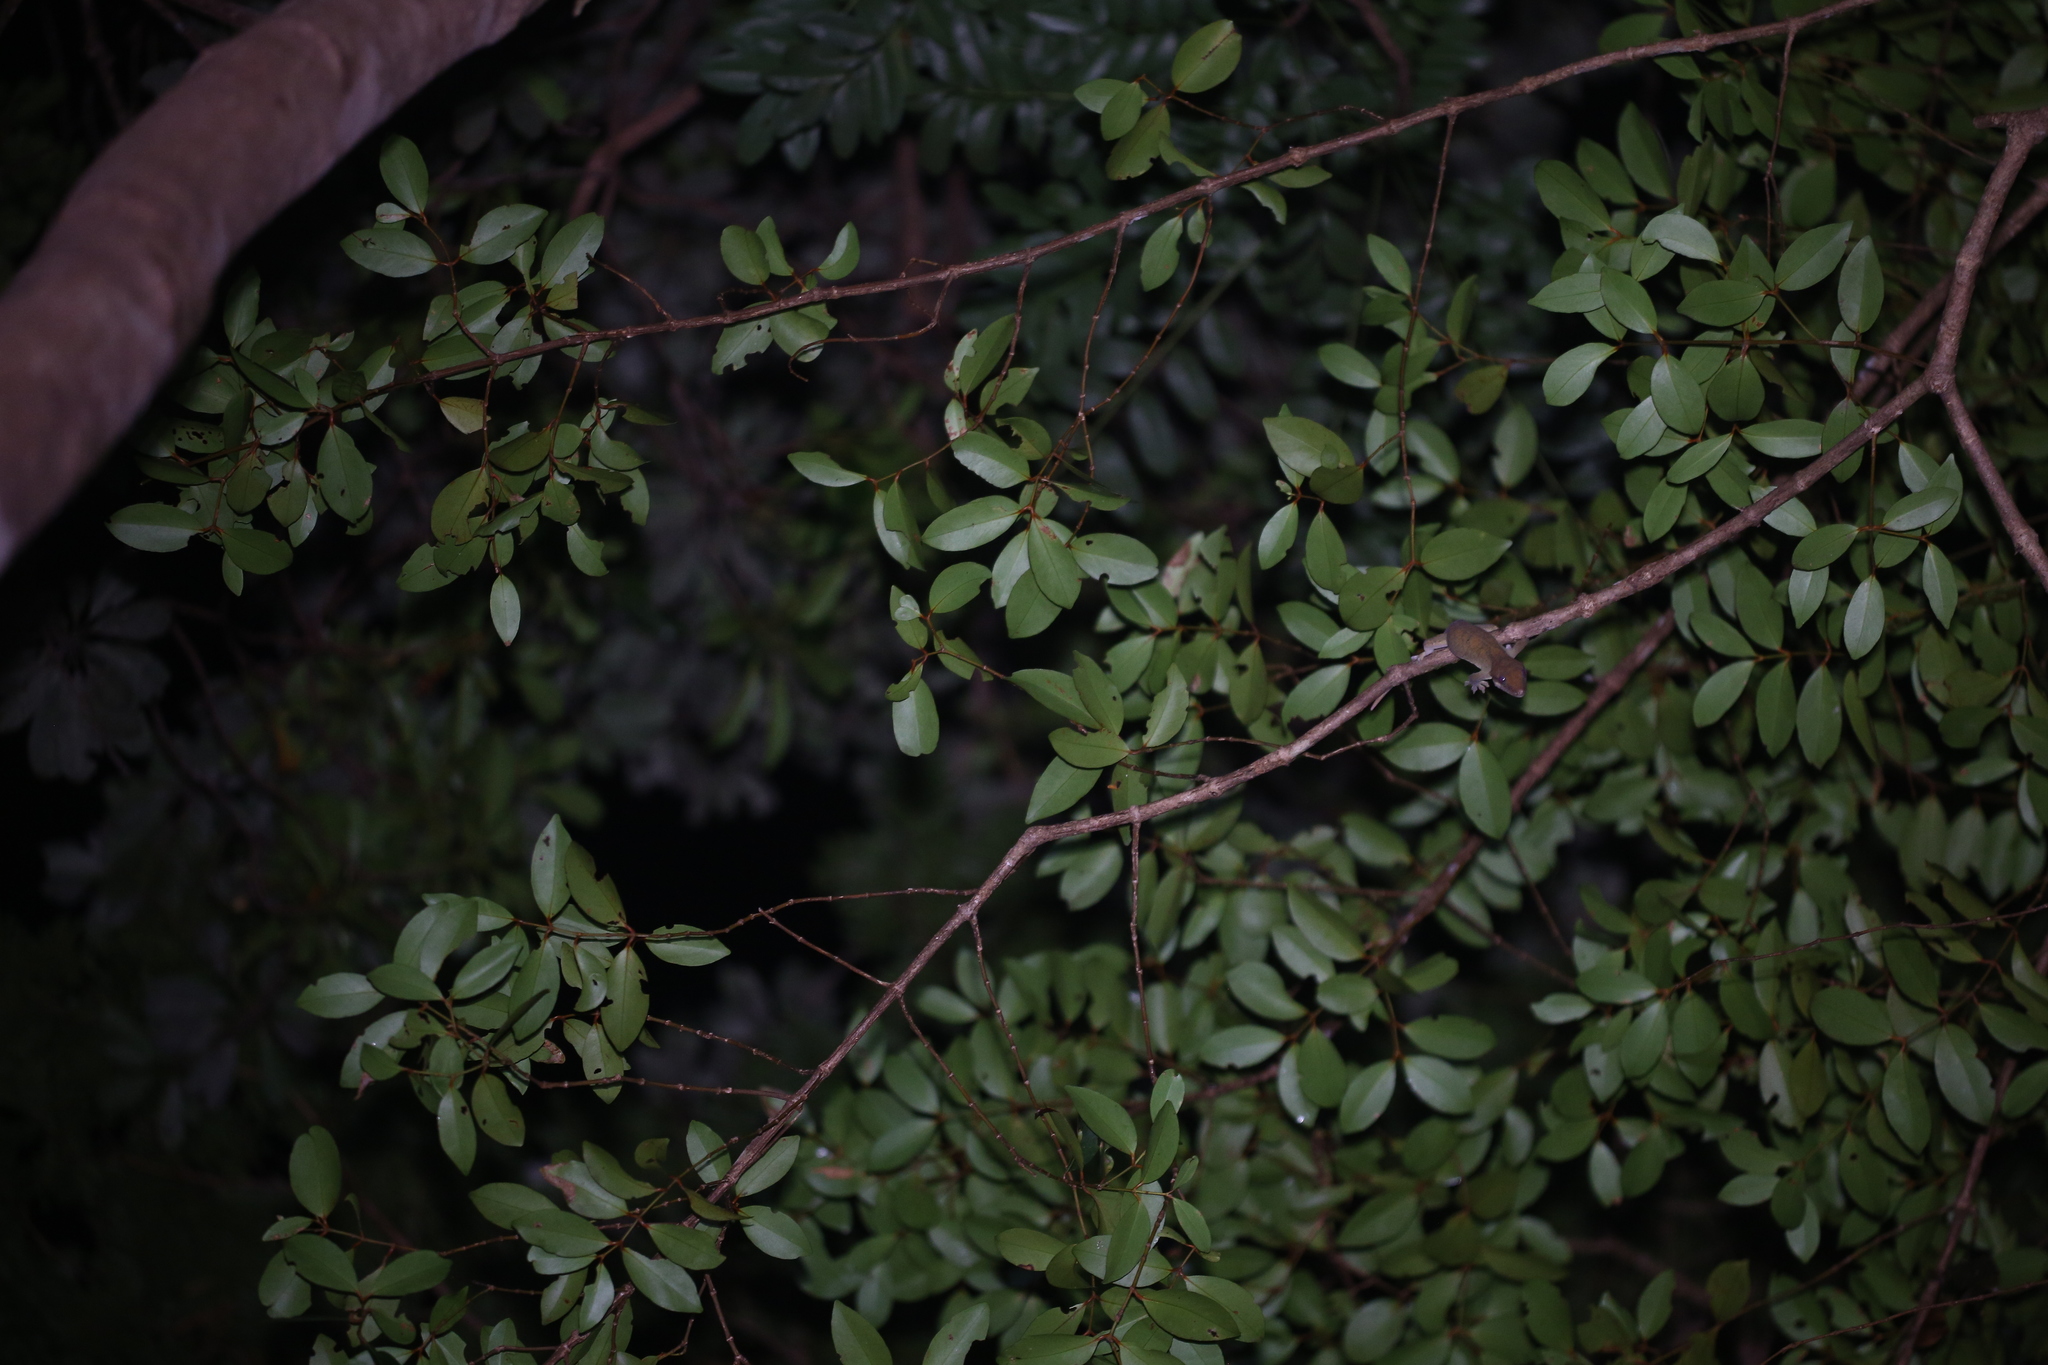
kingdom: Animalia
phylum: Chordata
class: Squamata
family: Diplodactylidae
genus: Correlophus
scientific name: Correlophus sarasinorum
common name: Roux's giant gecko
